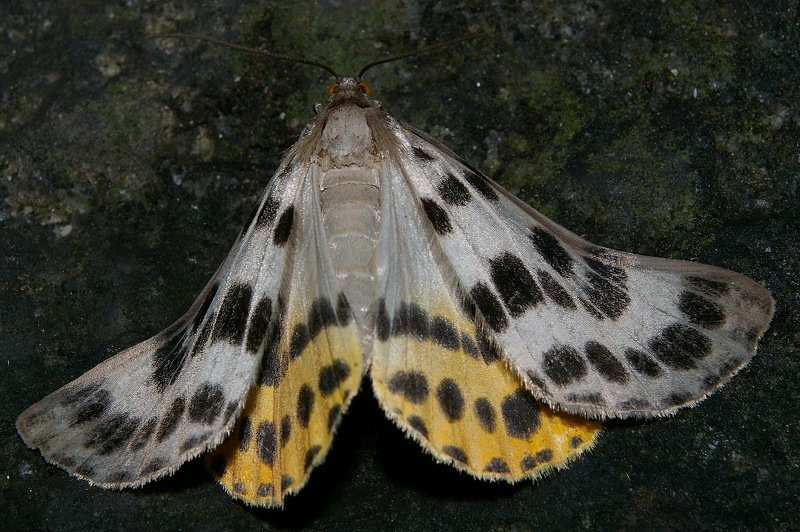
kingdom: Animalia
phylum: Arthropoda
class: Insecta
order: Lepidoptera
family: Geometridae
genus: Arichanna
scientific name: Arichanna
